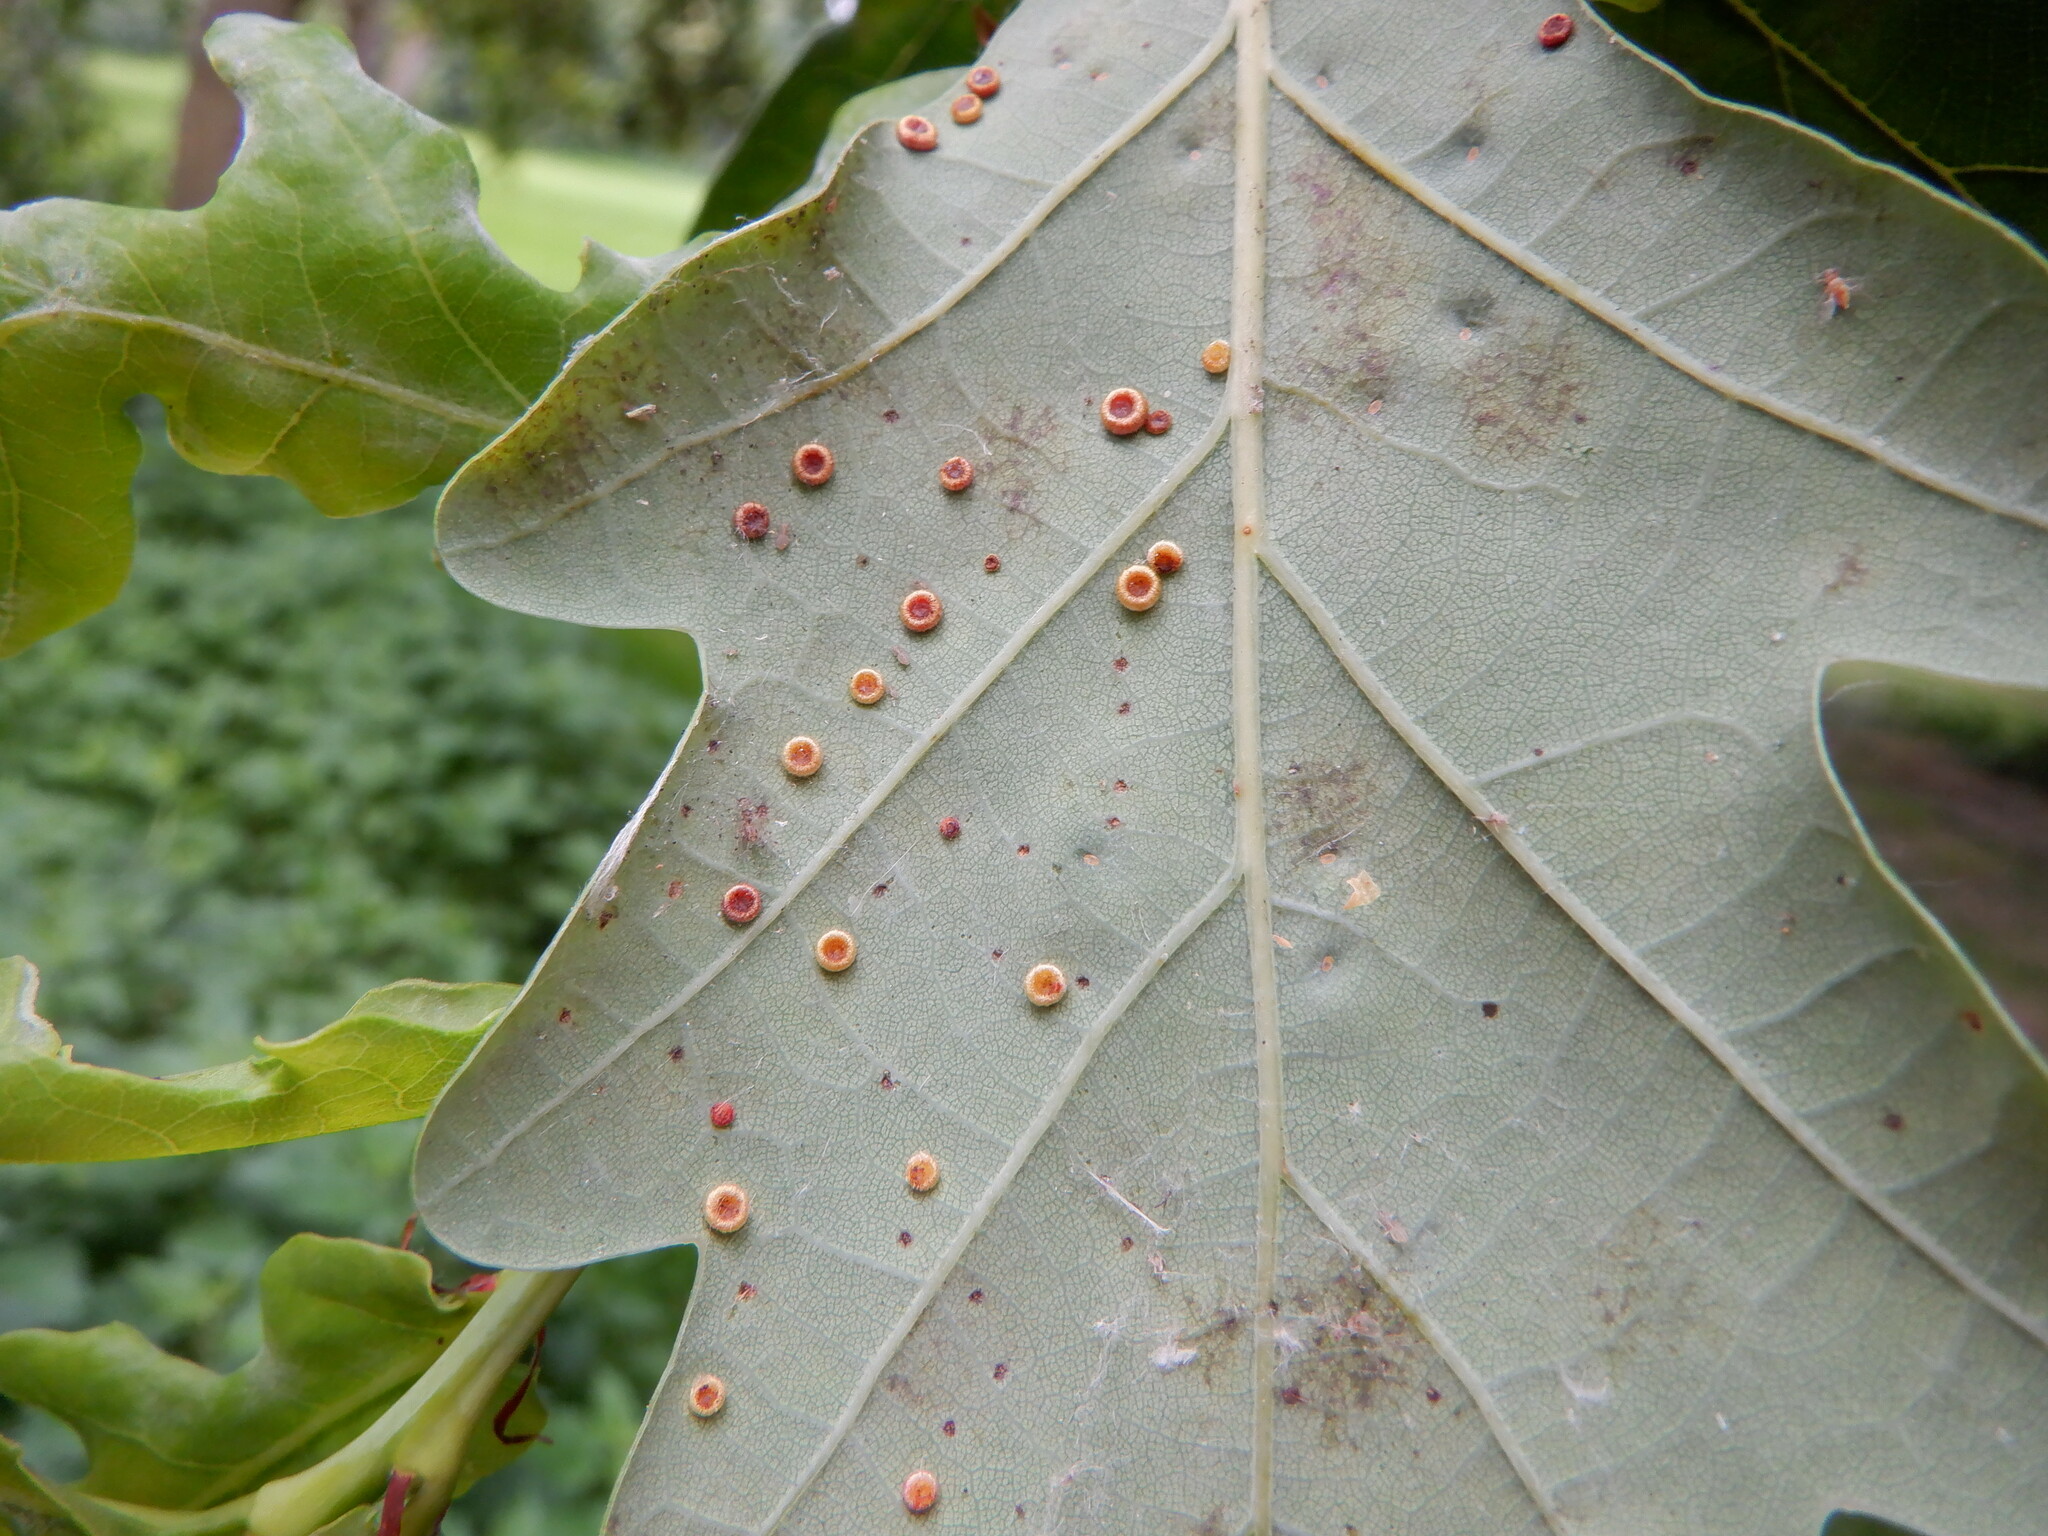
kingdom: Animalia
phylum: Arthropoda
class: Insecta
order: Hymenoptera
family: Cynipidae
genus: Neuroterus
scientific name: Neuroterus numismalis
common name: Silk-button spangle gall
